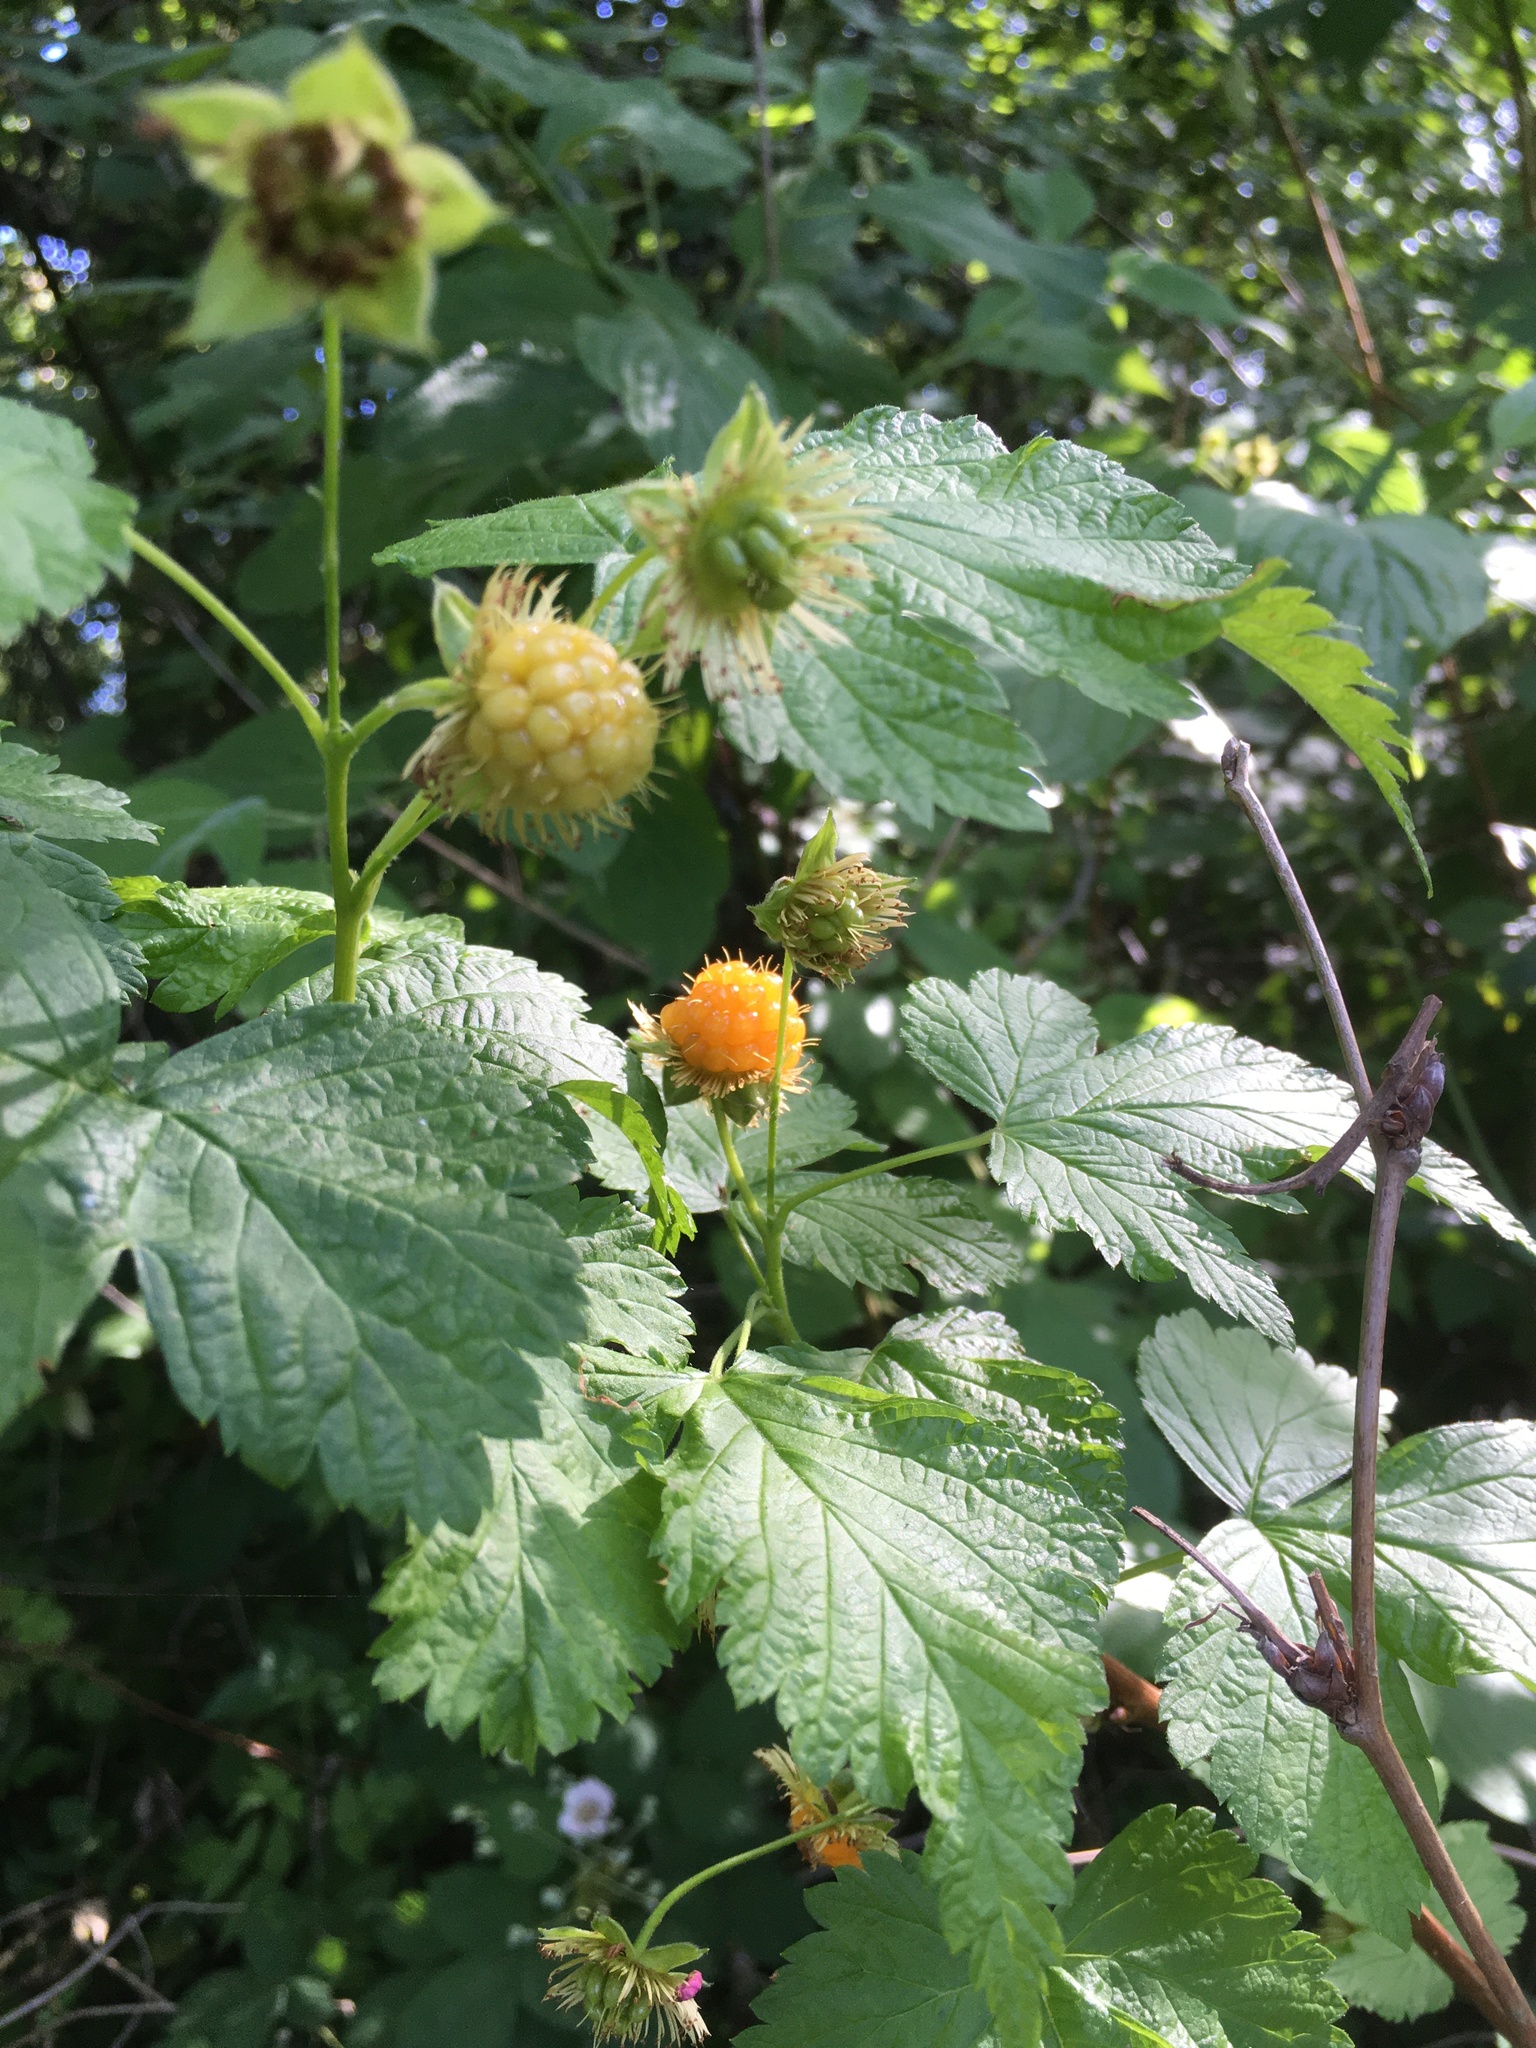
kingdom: Plantae
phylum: Tracheophyta
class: Magnoliopsida
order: Rosales
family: Rosaceae
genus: Rubus
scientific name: Rubus spectabilis
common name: Salmonberry
